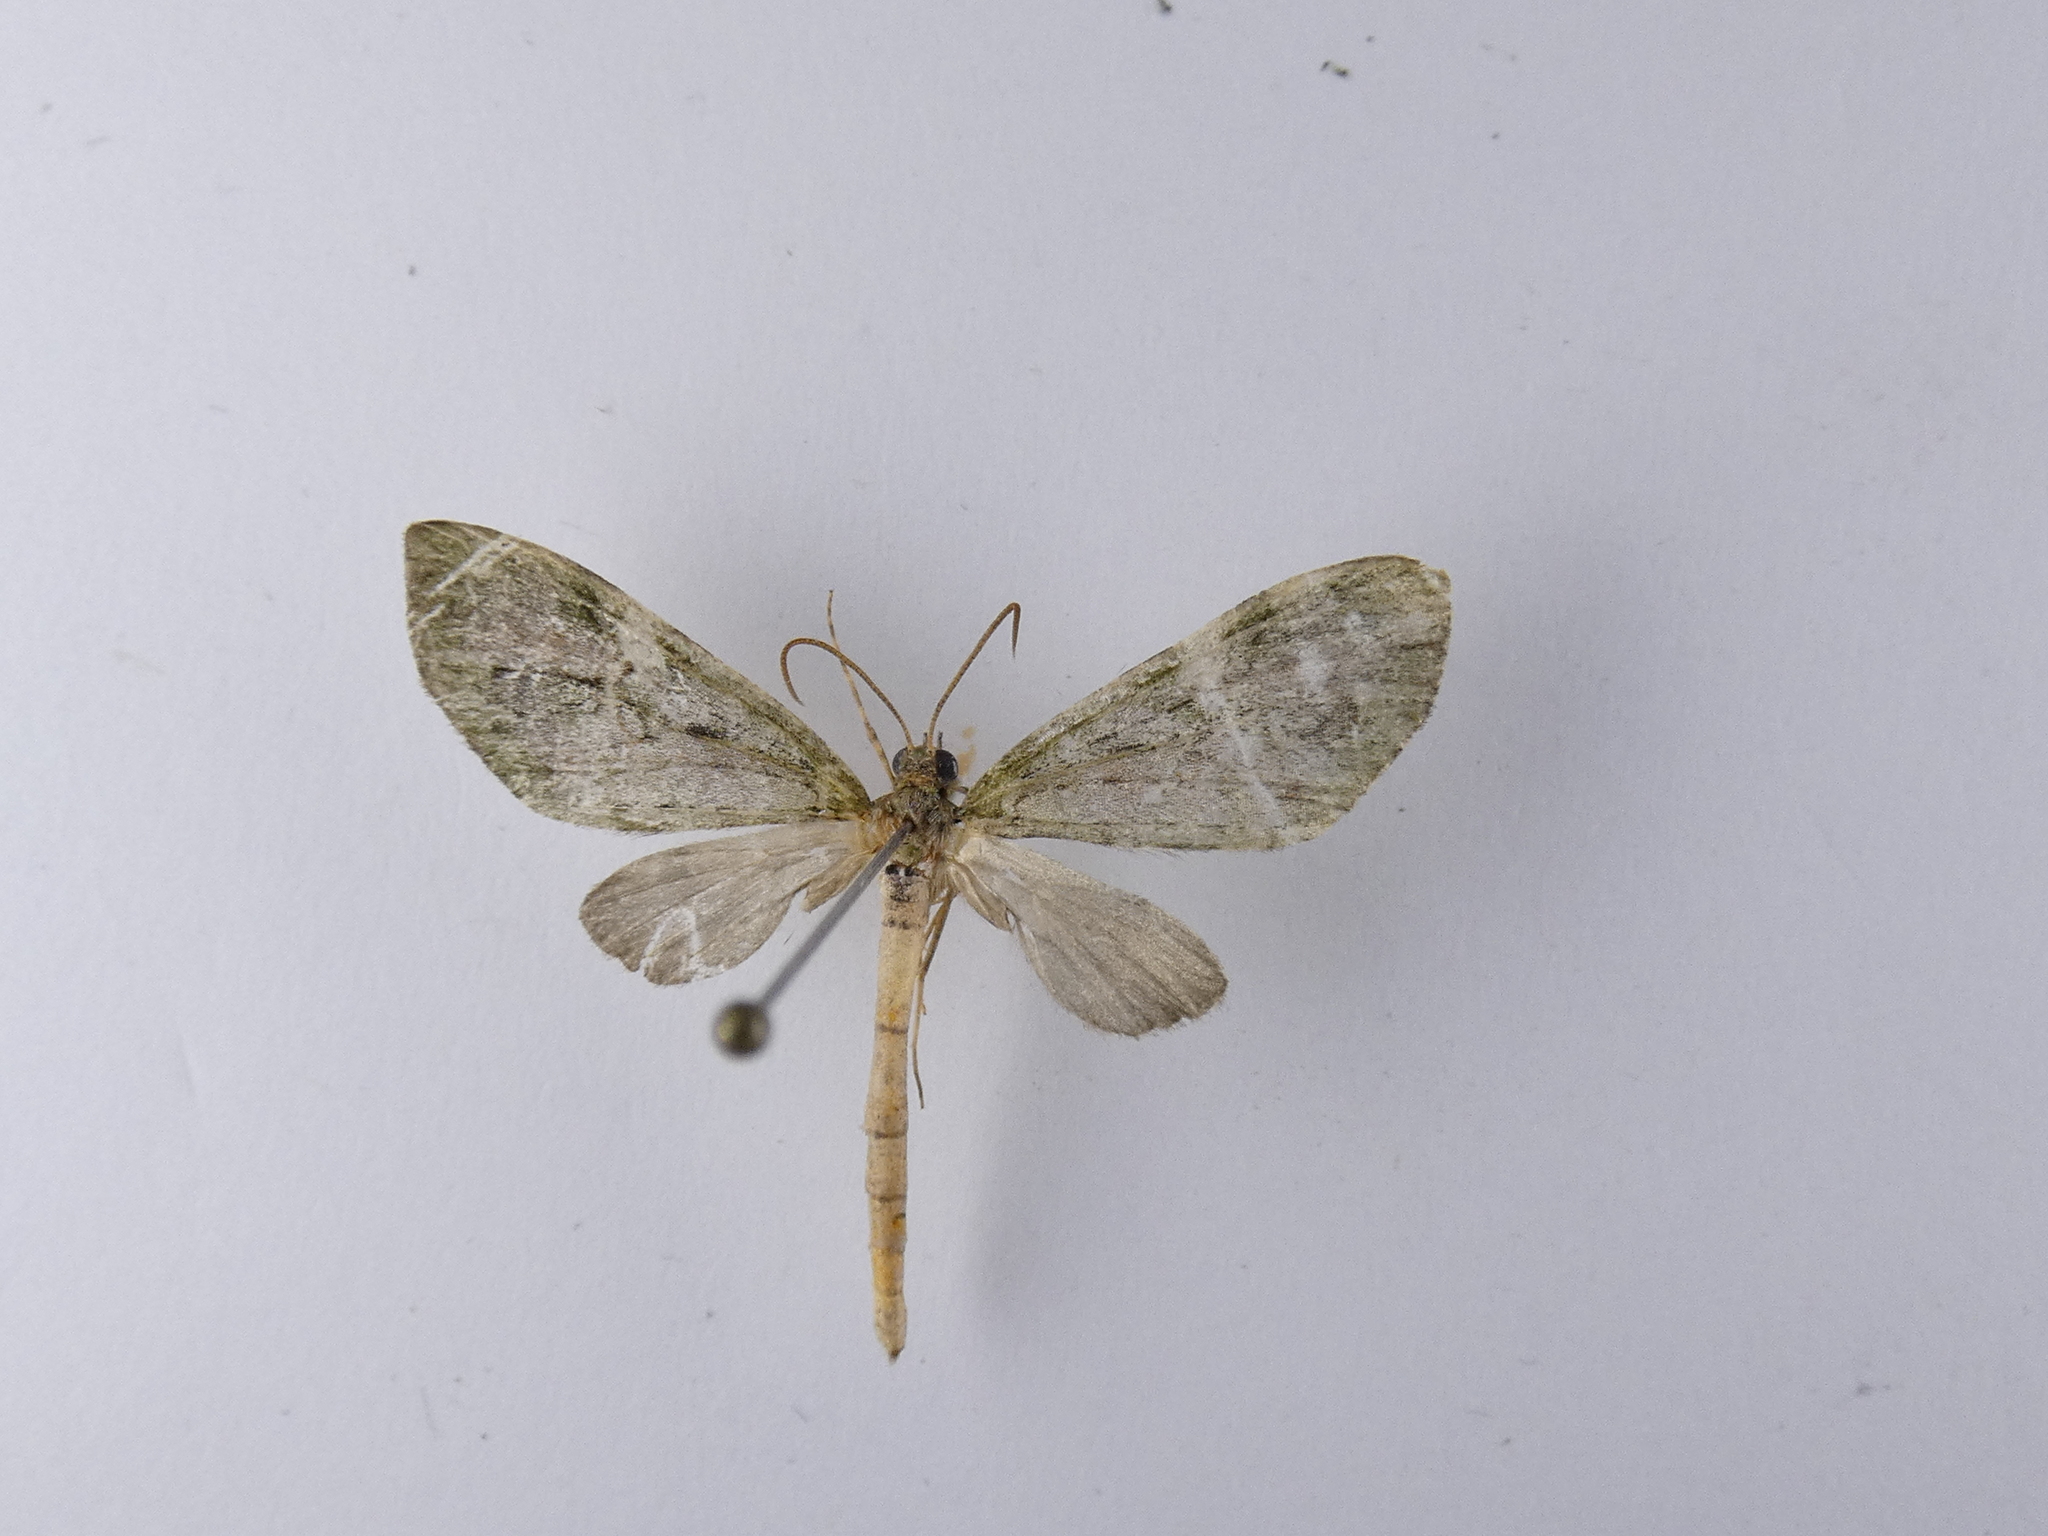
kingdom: Animalia
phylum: Arthropoda
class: Insecta
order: Lepidoptera
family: Geometridae
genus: Tatosoma
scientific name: Tatosoma topea
